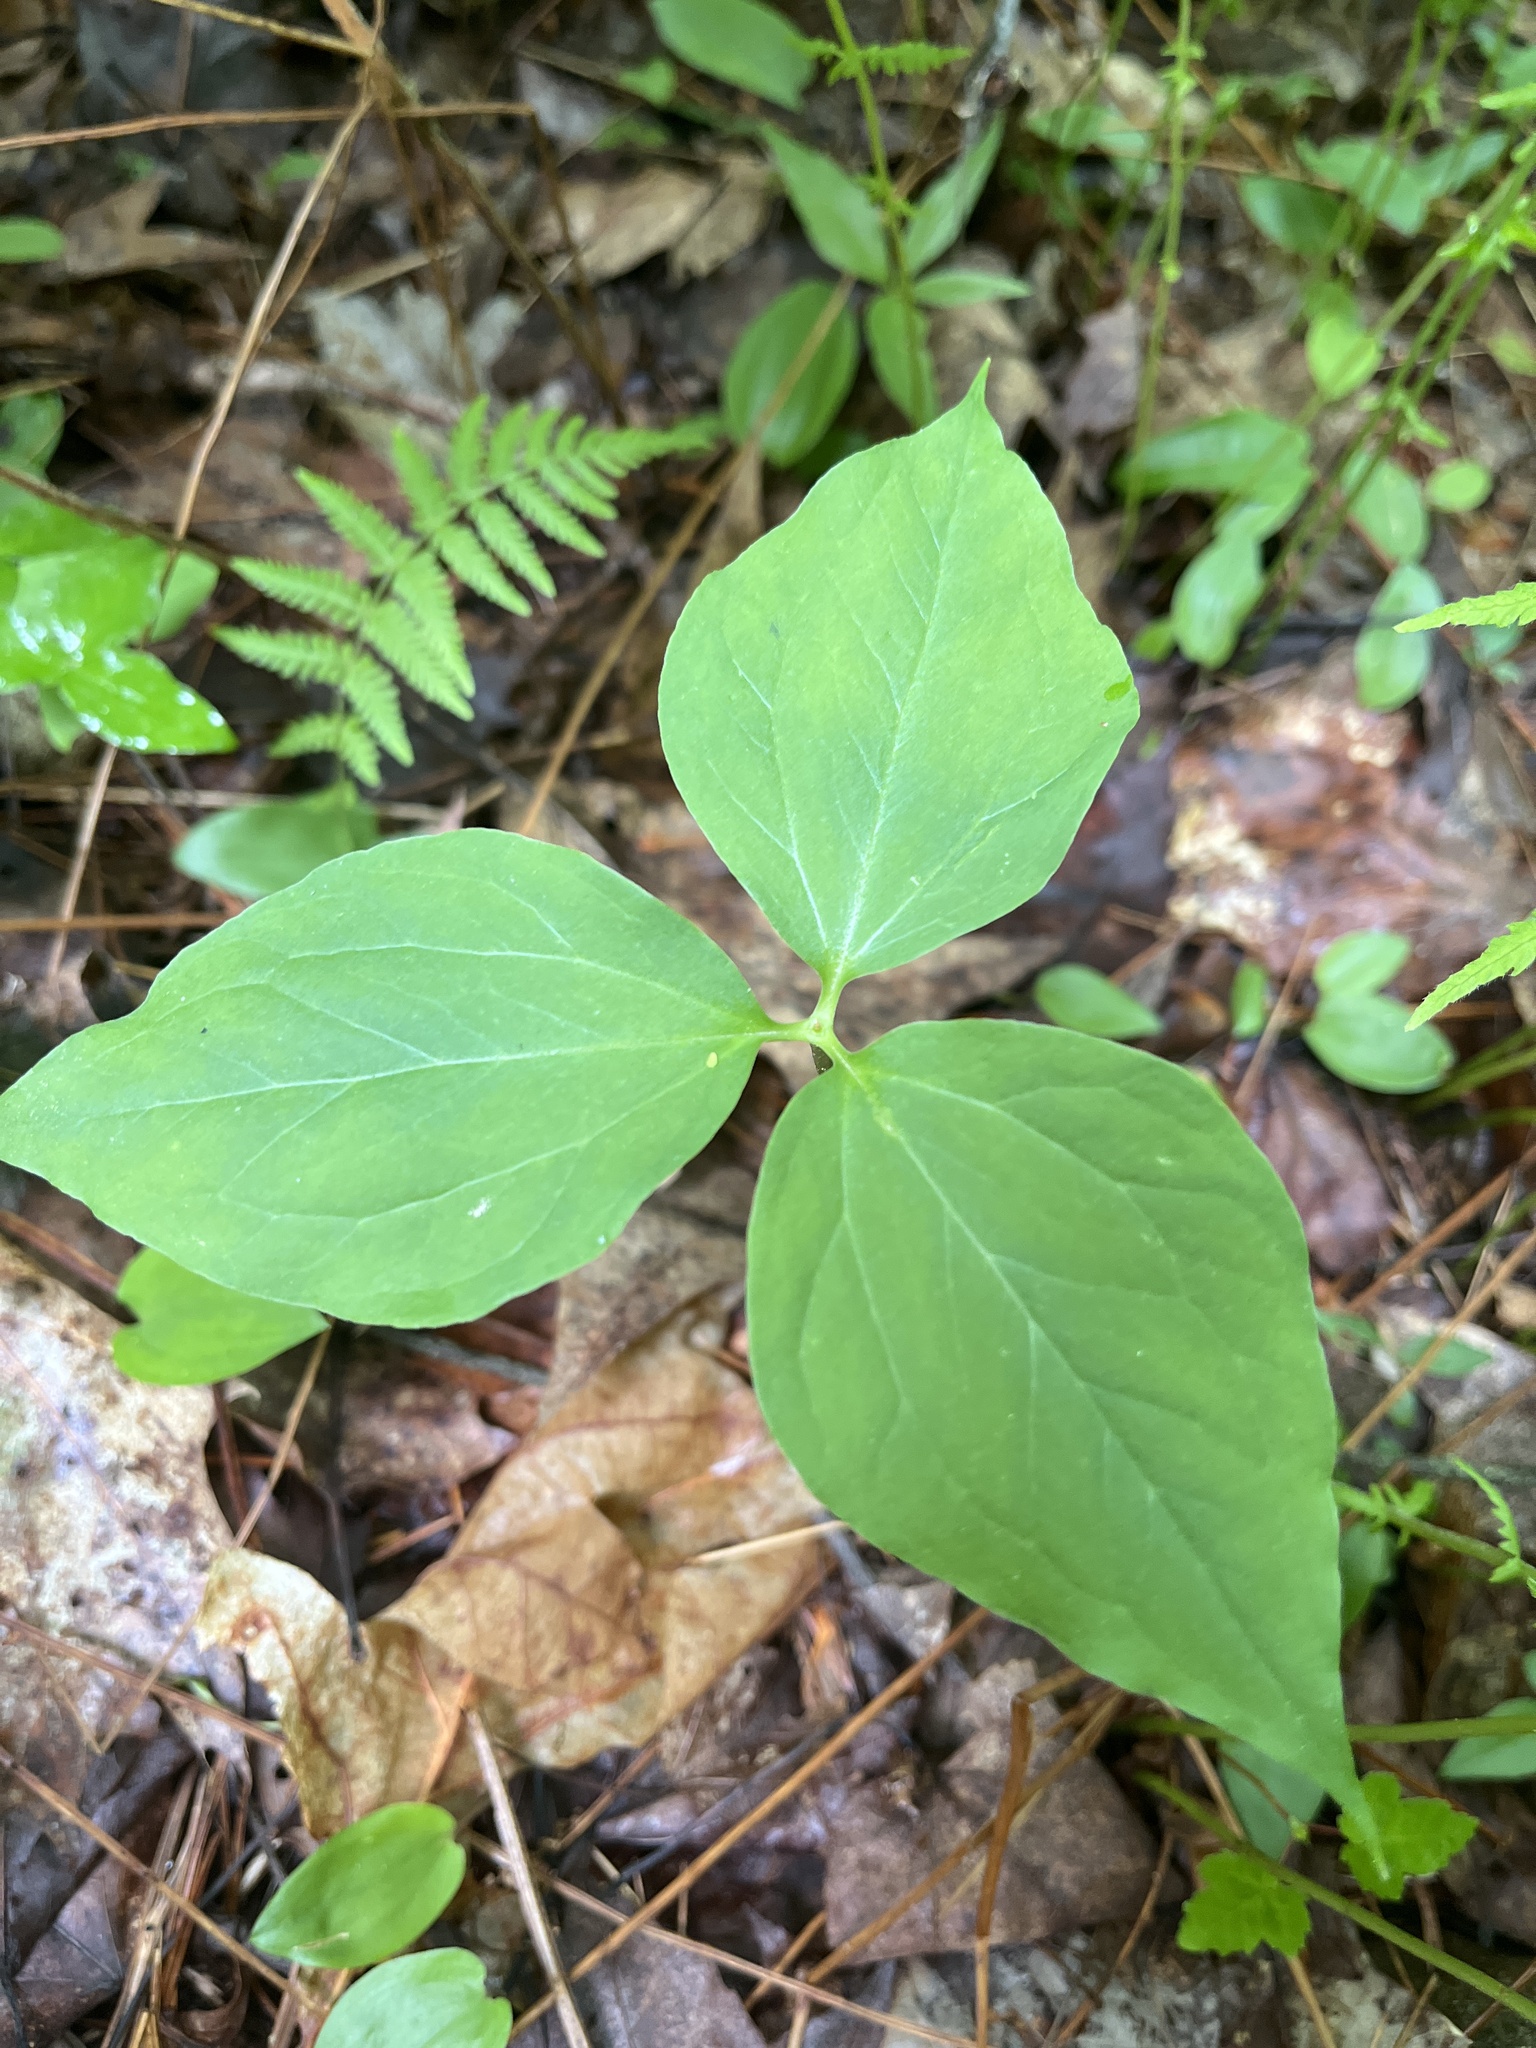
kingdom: Plantae
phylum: Tracheophyta
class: Liliopsida
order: Liliales
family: Melanthiaceae
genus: Trillium
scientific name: Trillium undulatum
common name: Paint trillium
